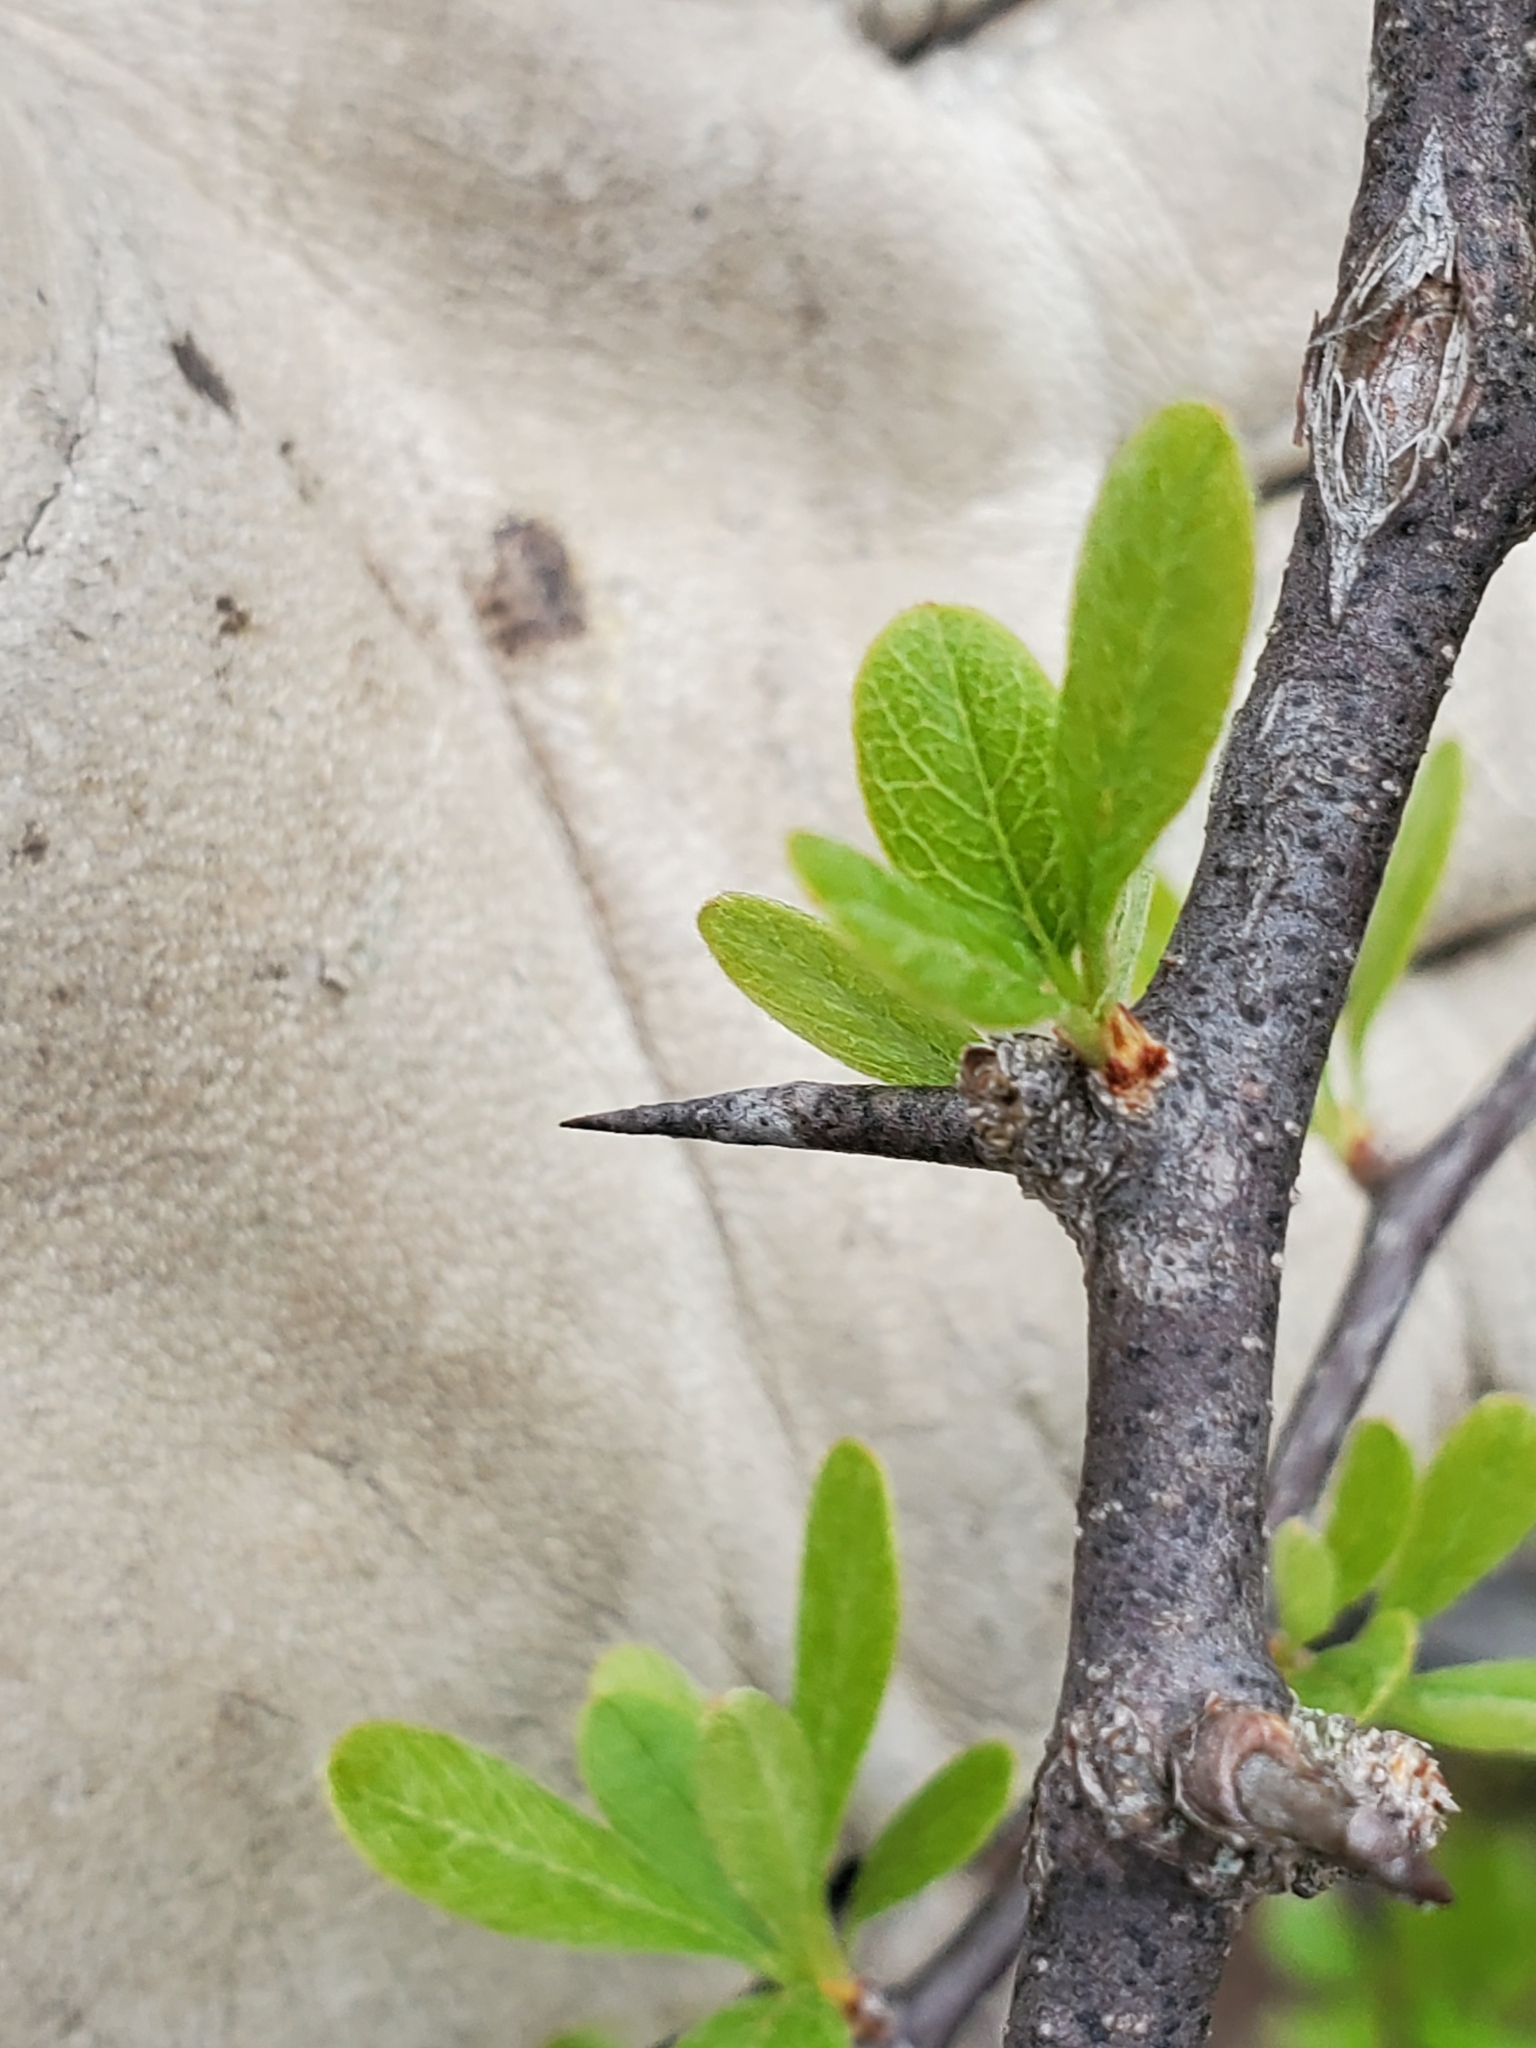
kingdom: Plantae
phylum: Tracheophyta
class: Magnoliopsida
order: Ericales
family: Sapotaceae
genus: Sideroxylon
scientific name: Sideroxylon lanuginosum
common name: Chittamwood
